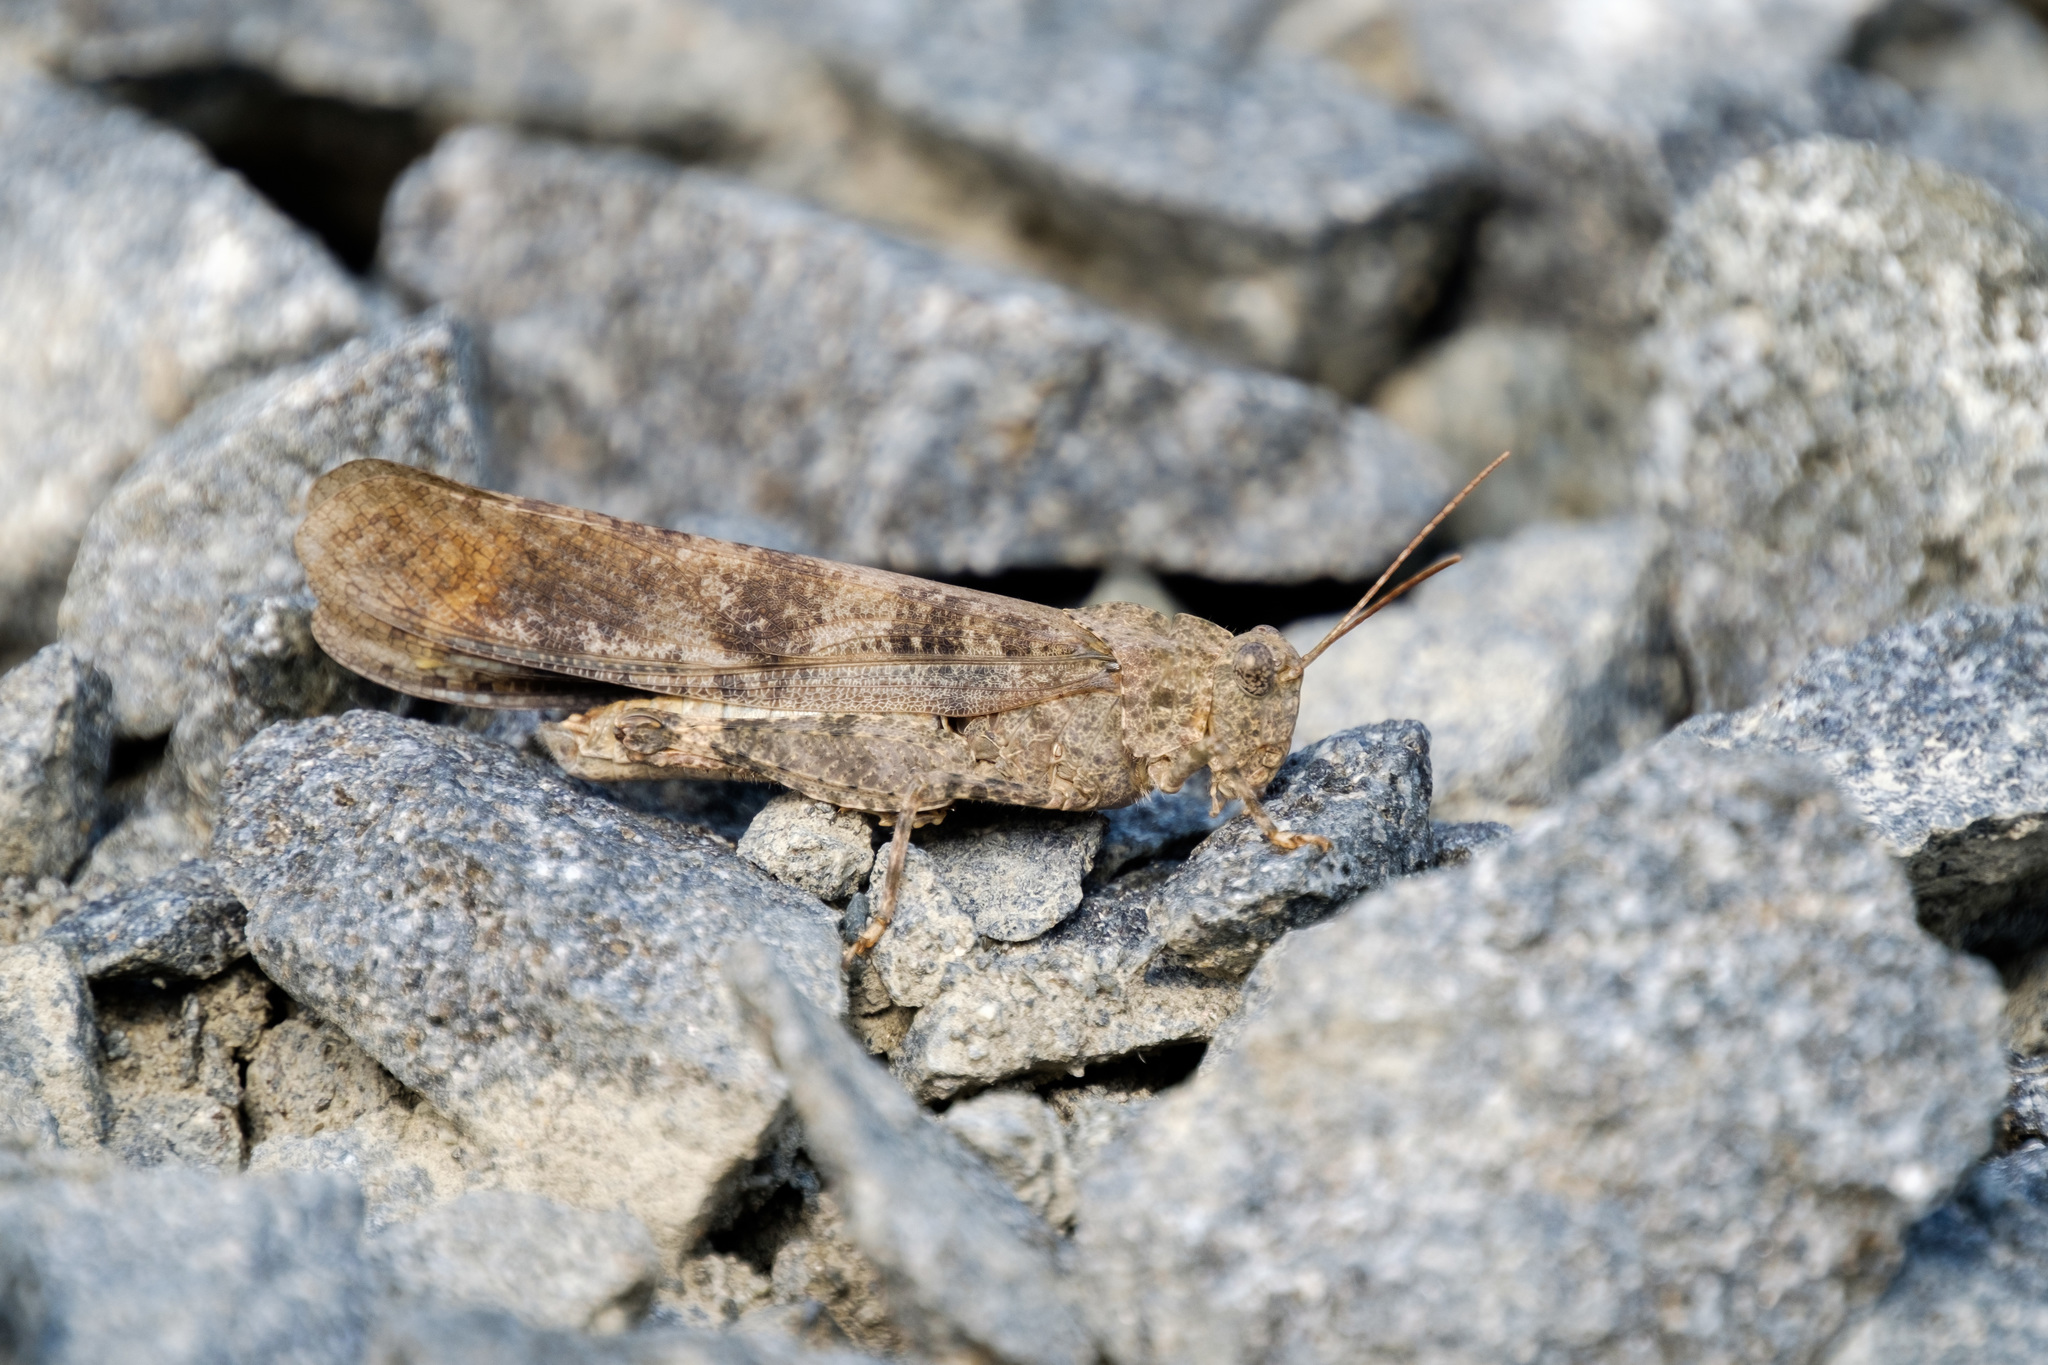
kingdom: Animalia
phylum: Arthropoda
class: Insecta
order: Orthoptera
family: Acrididae
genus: Dissosteira
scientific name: Dissosteira carolina
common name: Carolina grasshopper
